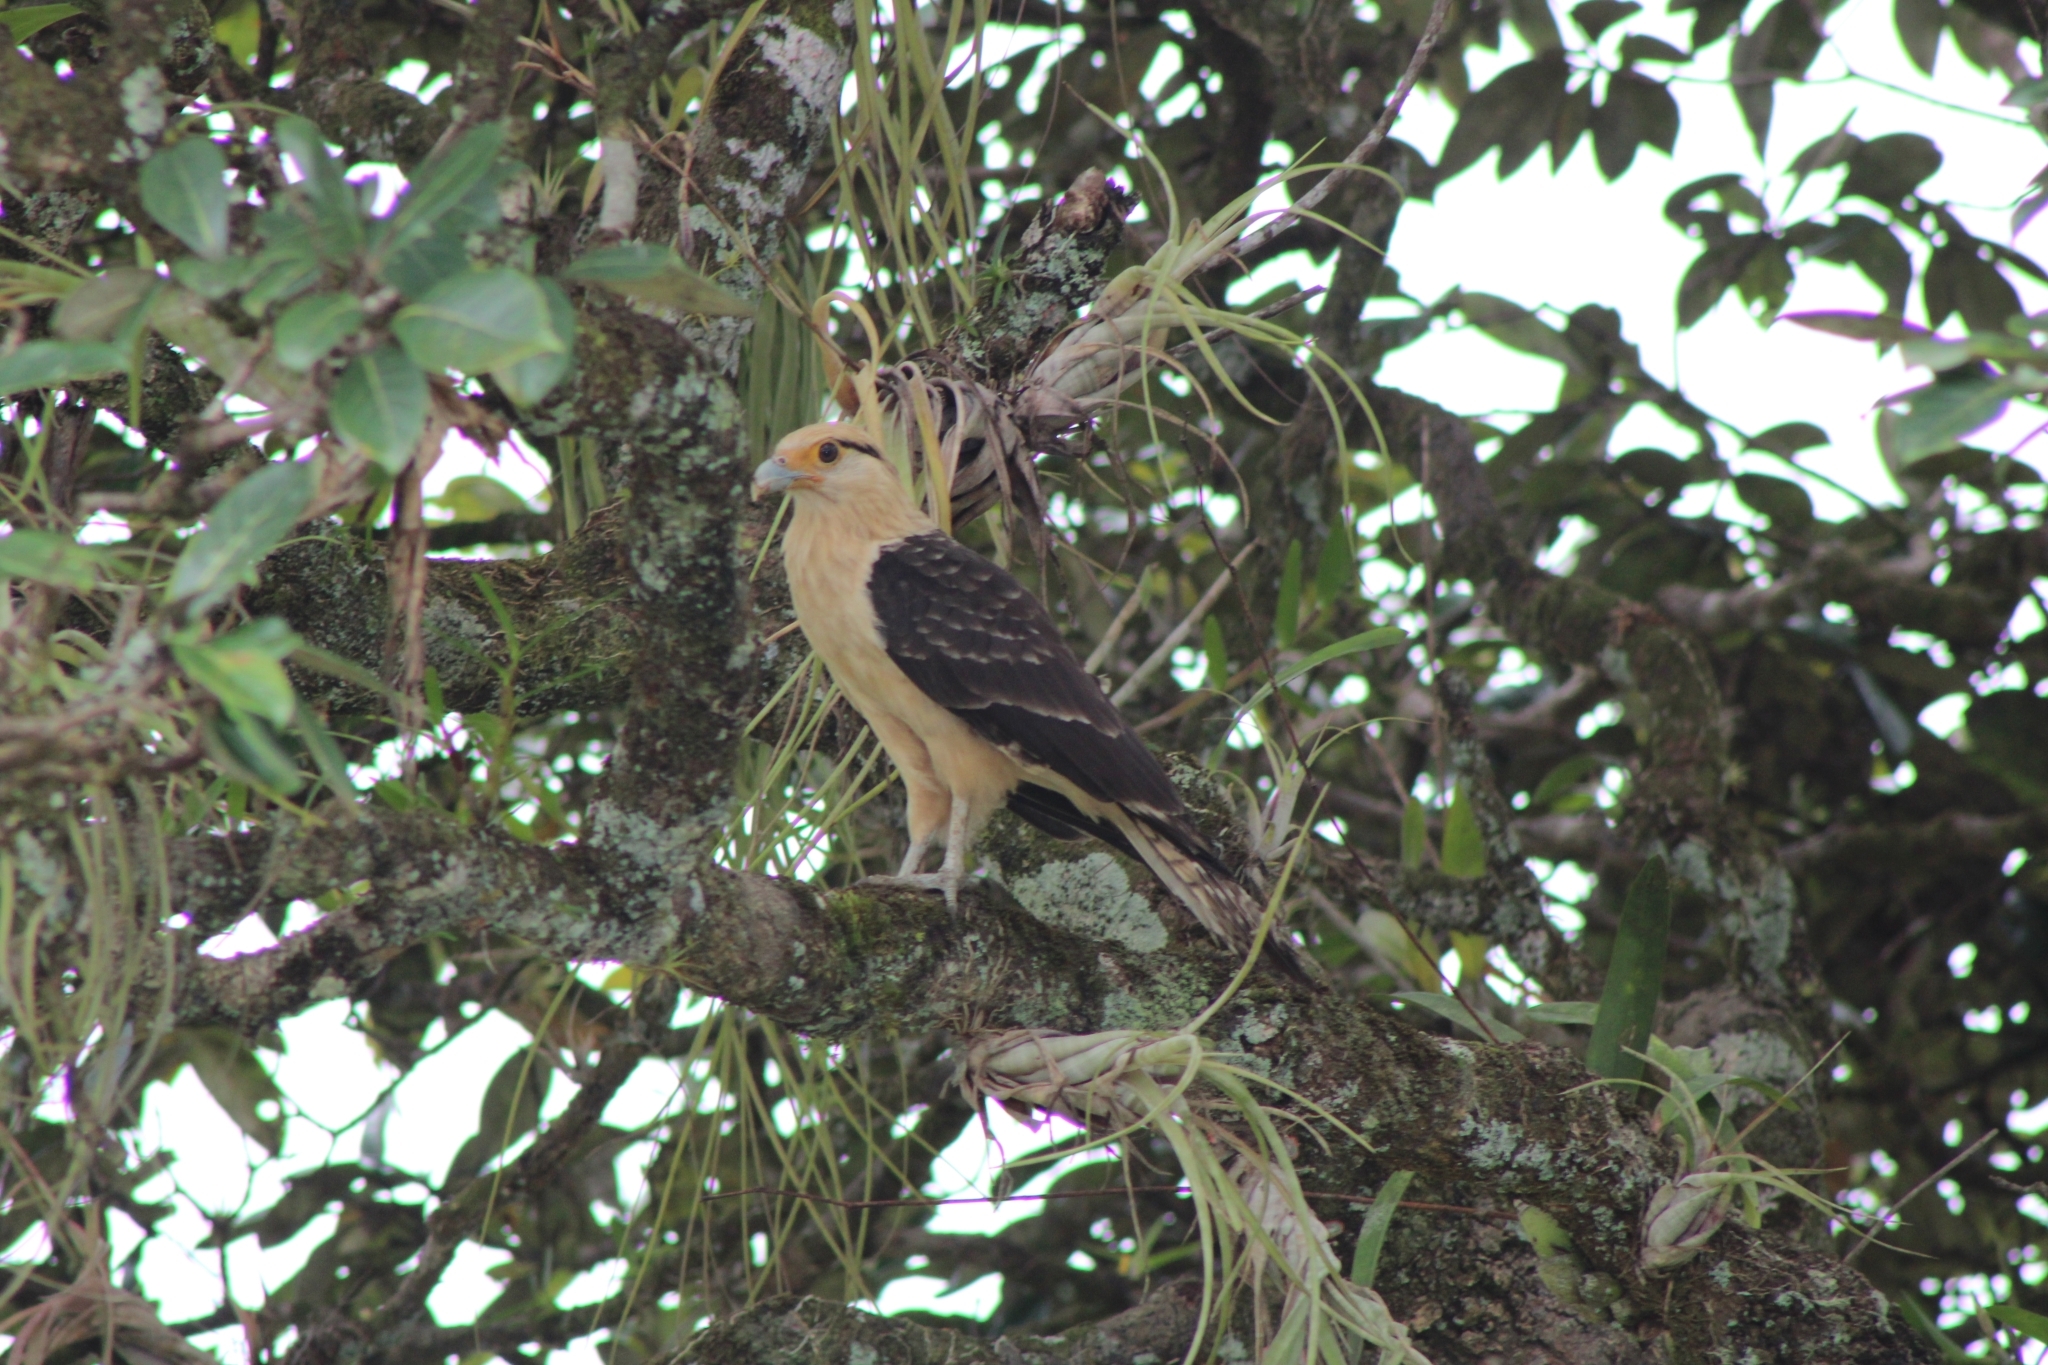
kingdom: Animalia
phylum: Chordata
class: Aves
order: Falconiformes
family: Falconidae
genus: Daptrius
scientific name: Daptrius
